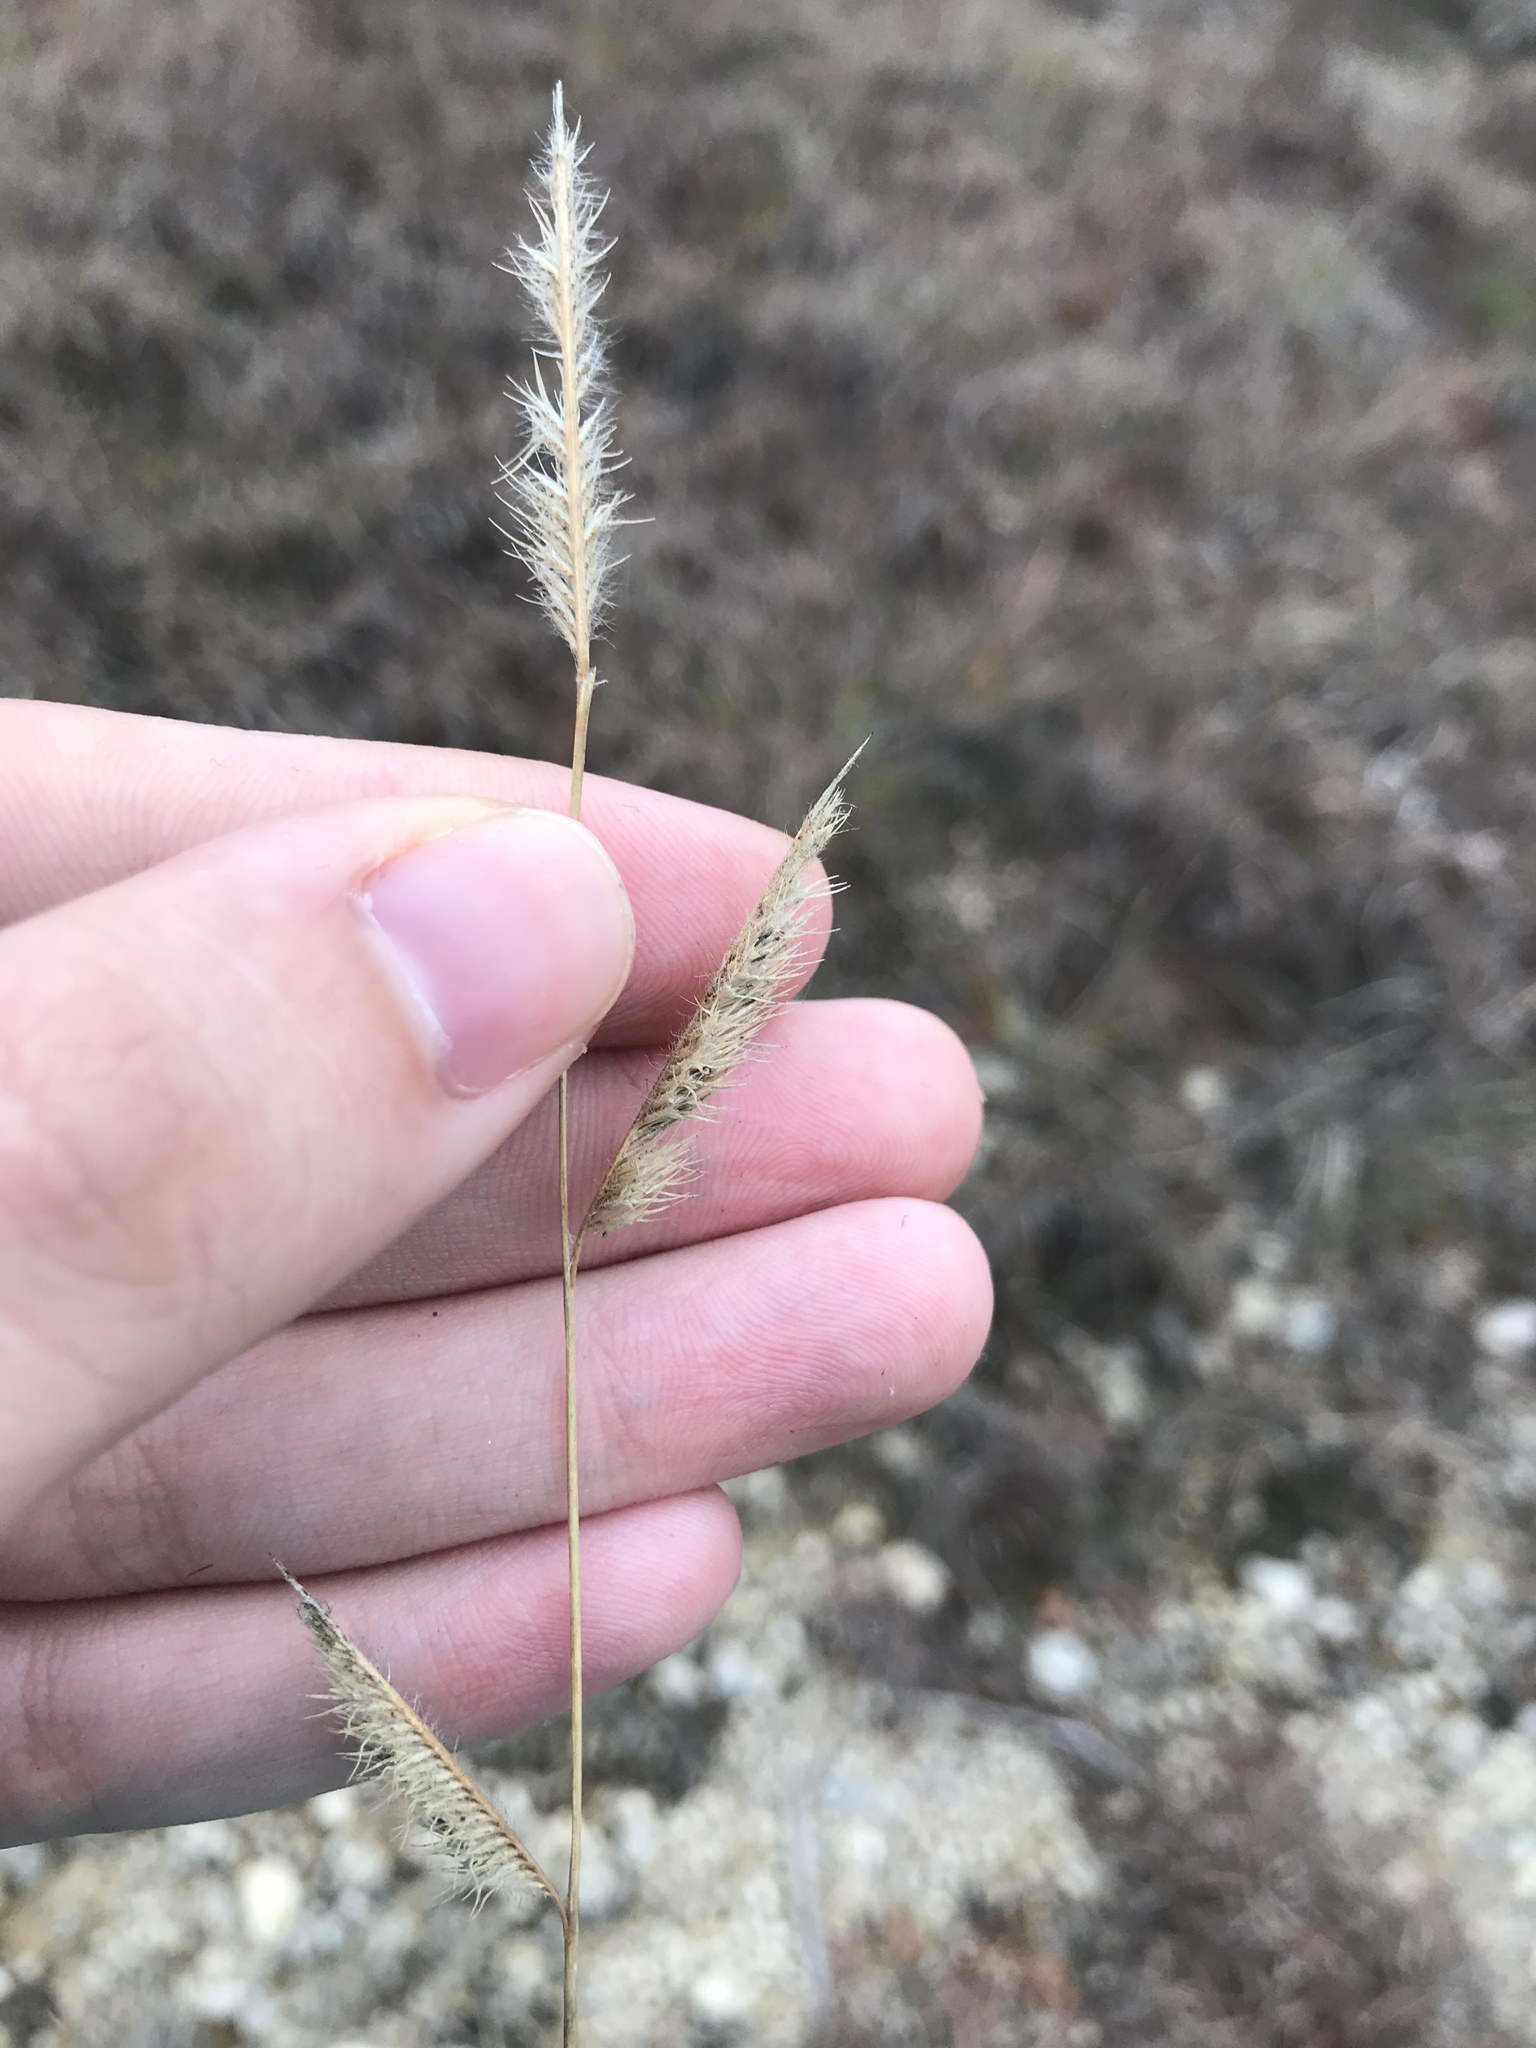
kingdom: Plantae
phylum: Tracheophyta
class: Liliopsida
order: Poales
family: Poaceae
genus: Bouteloua
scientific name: Bouteloua hirsuta
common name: Hairy grama
